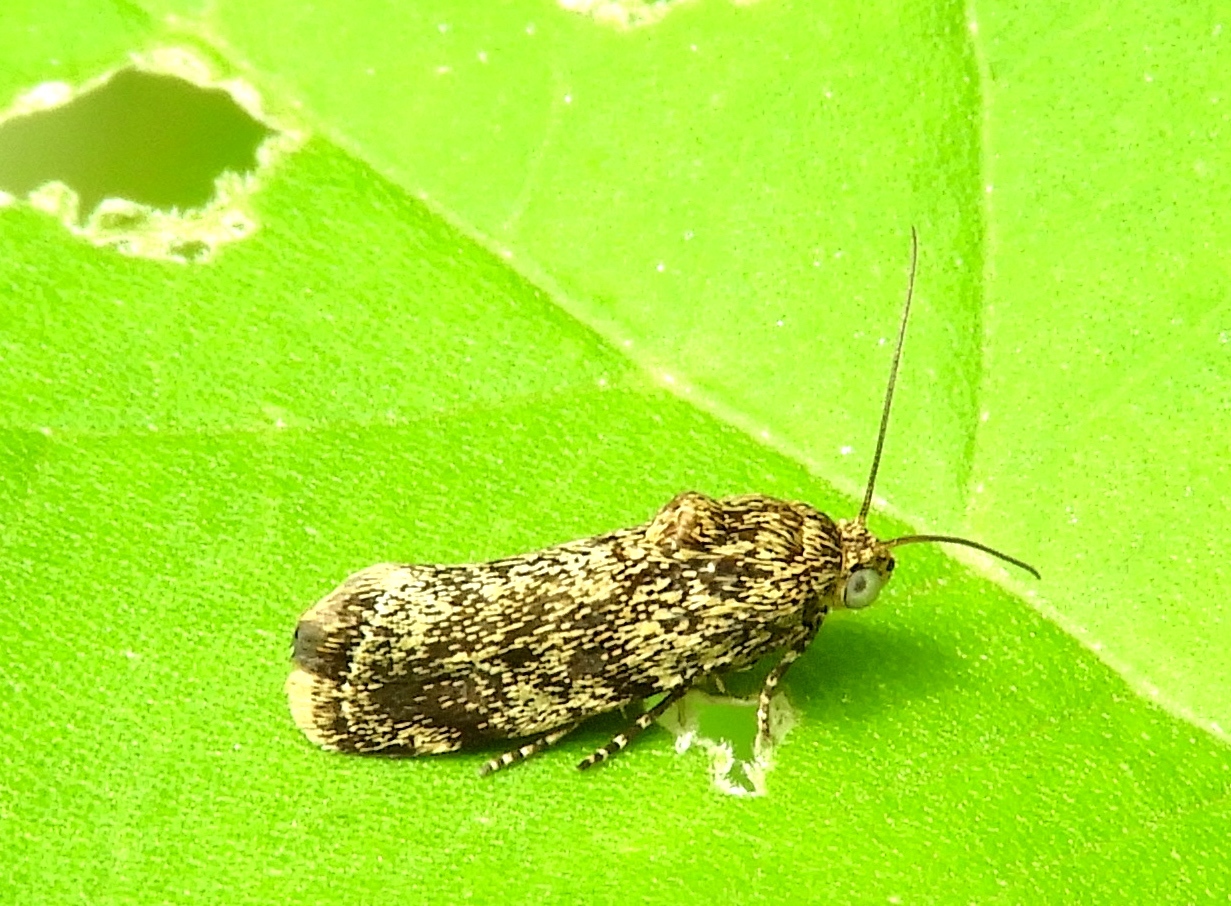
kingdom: Animalia
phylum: Arthropoda
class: Insecta
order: Lepidoptera
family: Noctuidae
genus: Acontia
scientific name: Acontia margana
